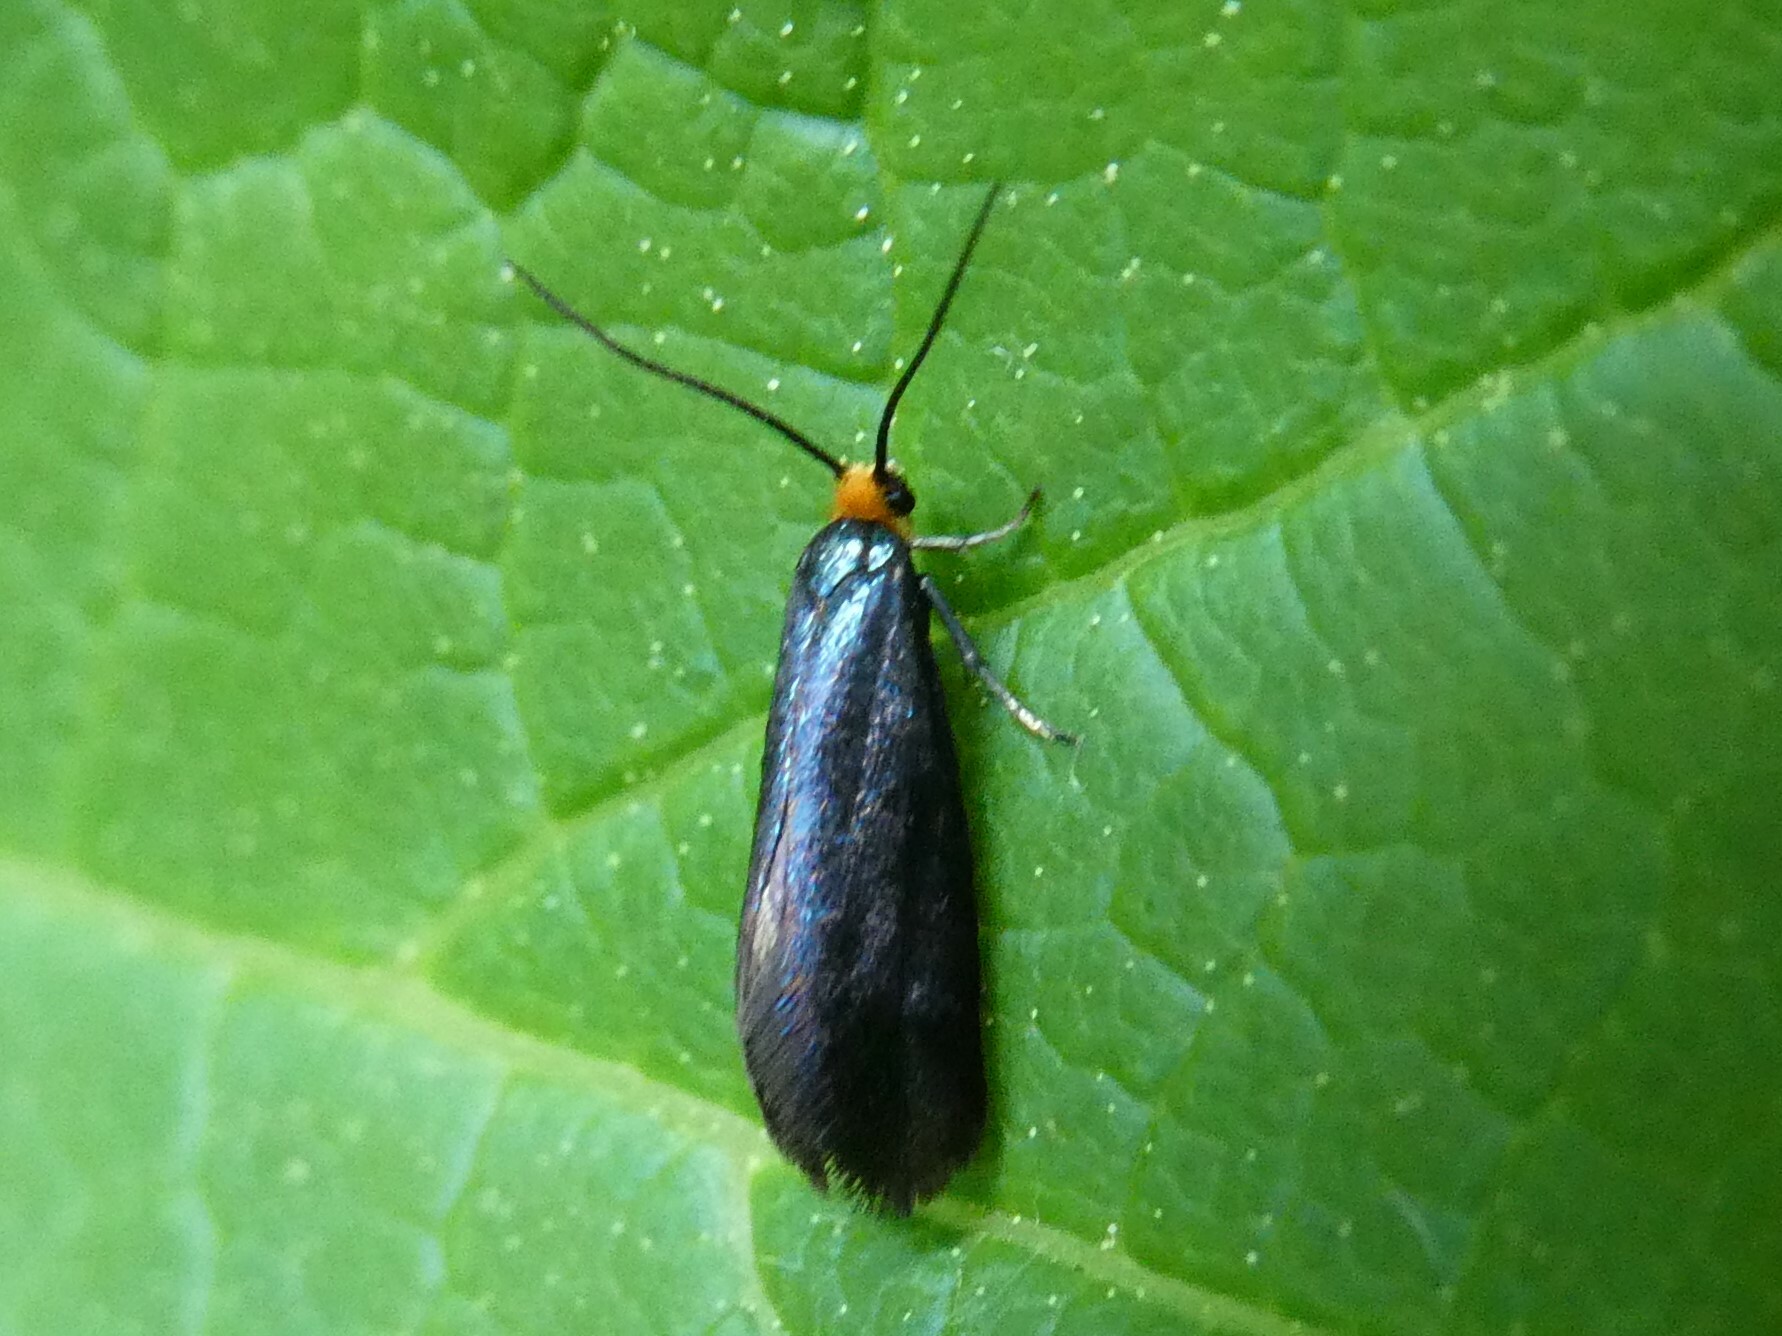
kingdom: Animalia
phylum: Arthropoda
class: Insecta
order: Lepidoptera
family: Incurvariidae
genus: Paraclemensia
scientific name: Paraclemensia acerifoliella
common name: Maple leafcutter
